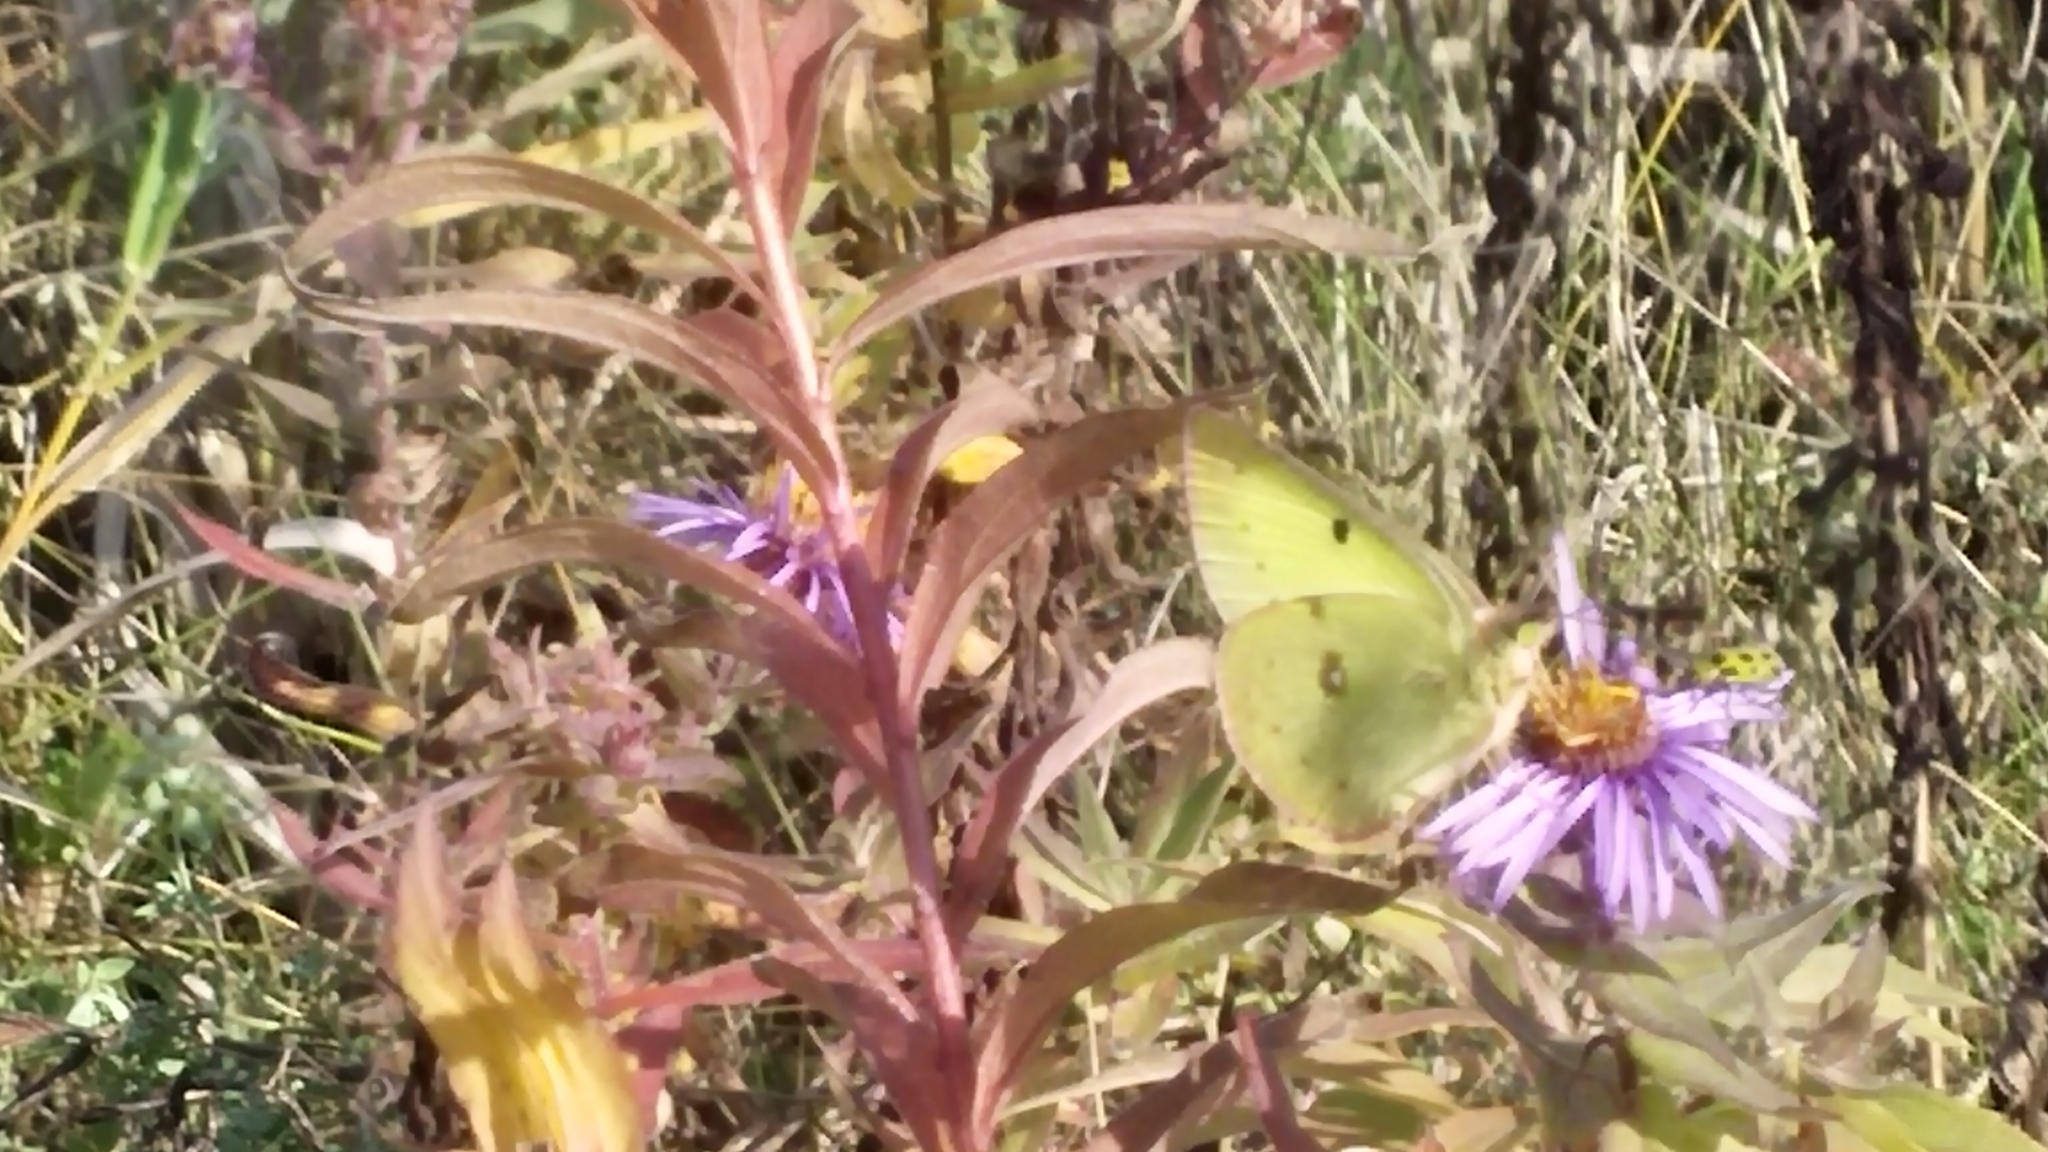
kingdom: Animalia
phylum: Arthropoda
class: Insecta
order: Lepidoptera
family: Pieridae
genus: Colias
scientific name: Colias philodice
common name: Clouded sulphur
